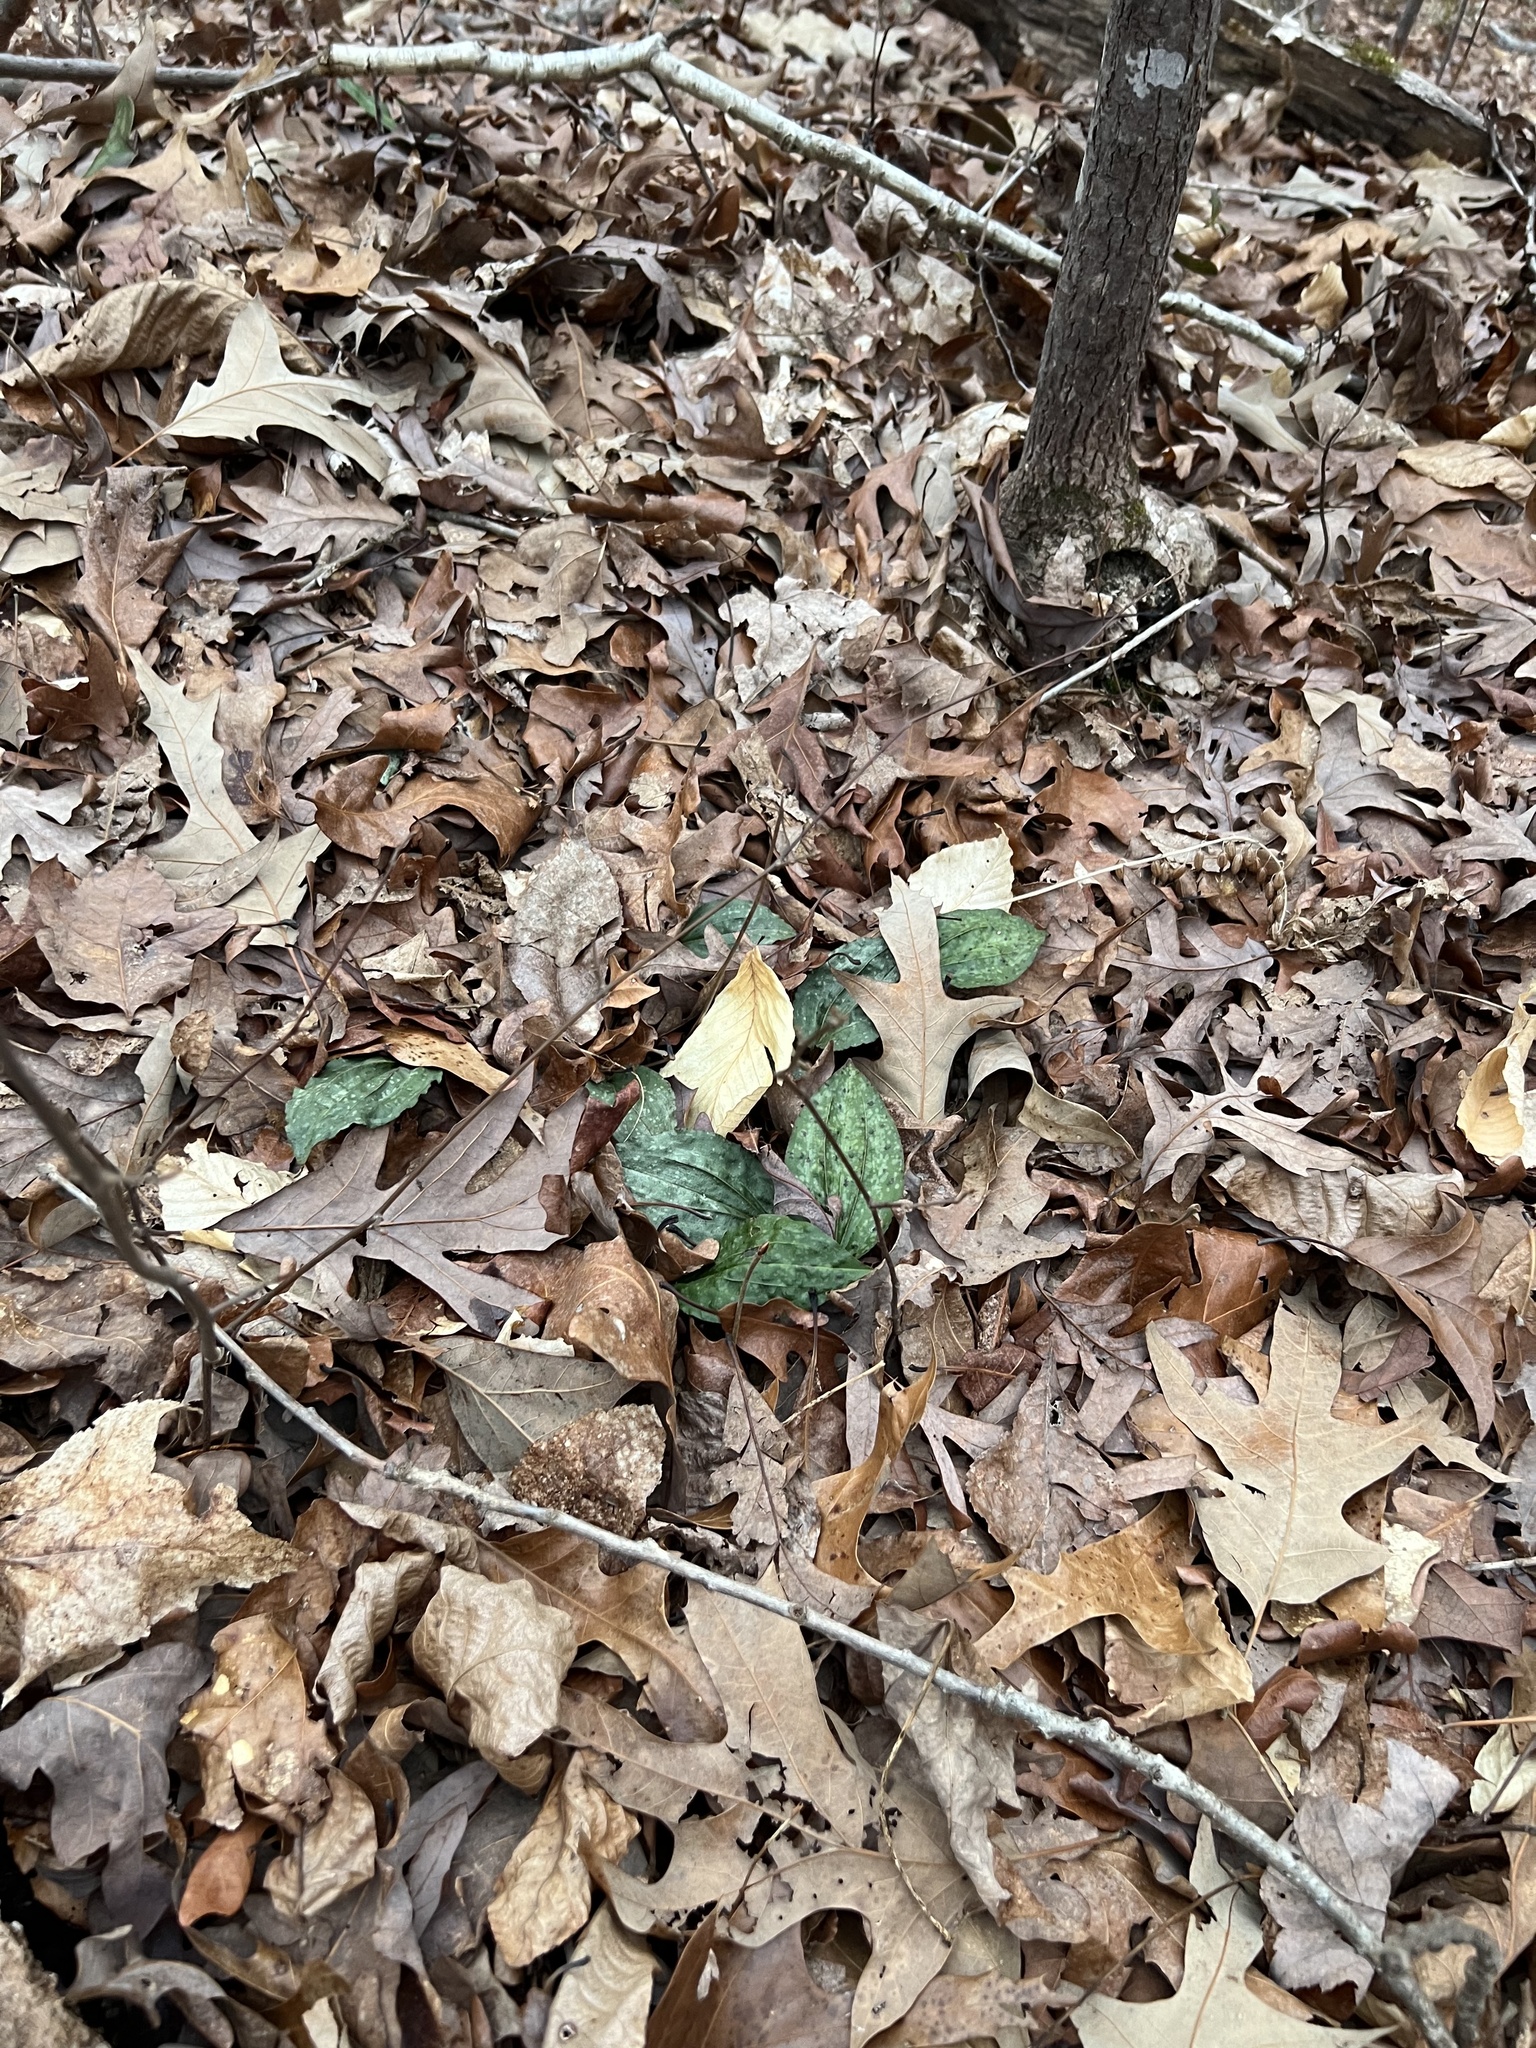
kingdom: Plantae
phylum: Tracheophyta
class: Liliopsida
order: Asparagales
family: Orchidaceae
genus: Tipularia
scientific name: Tipularia discolor
